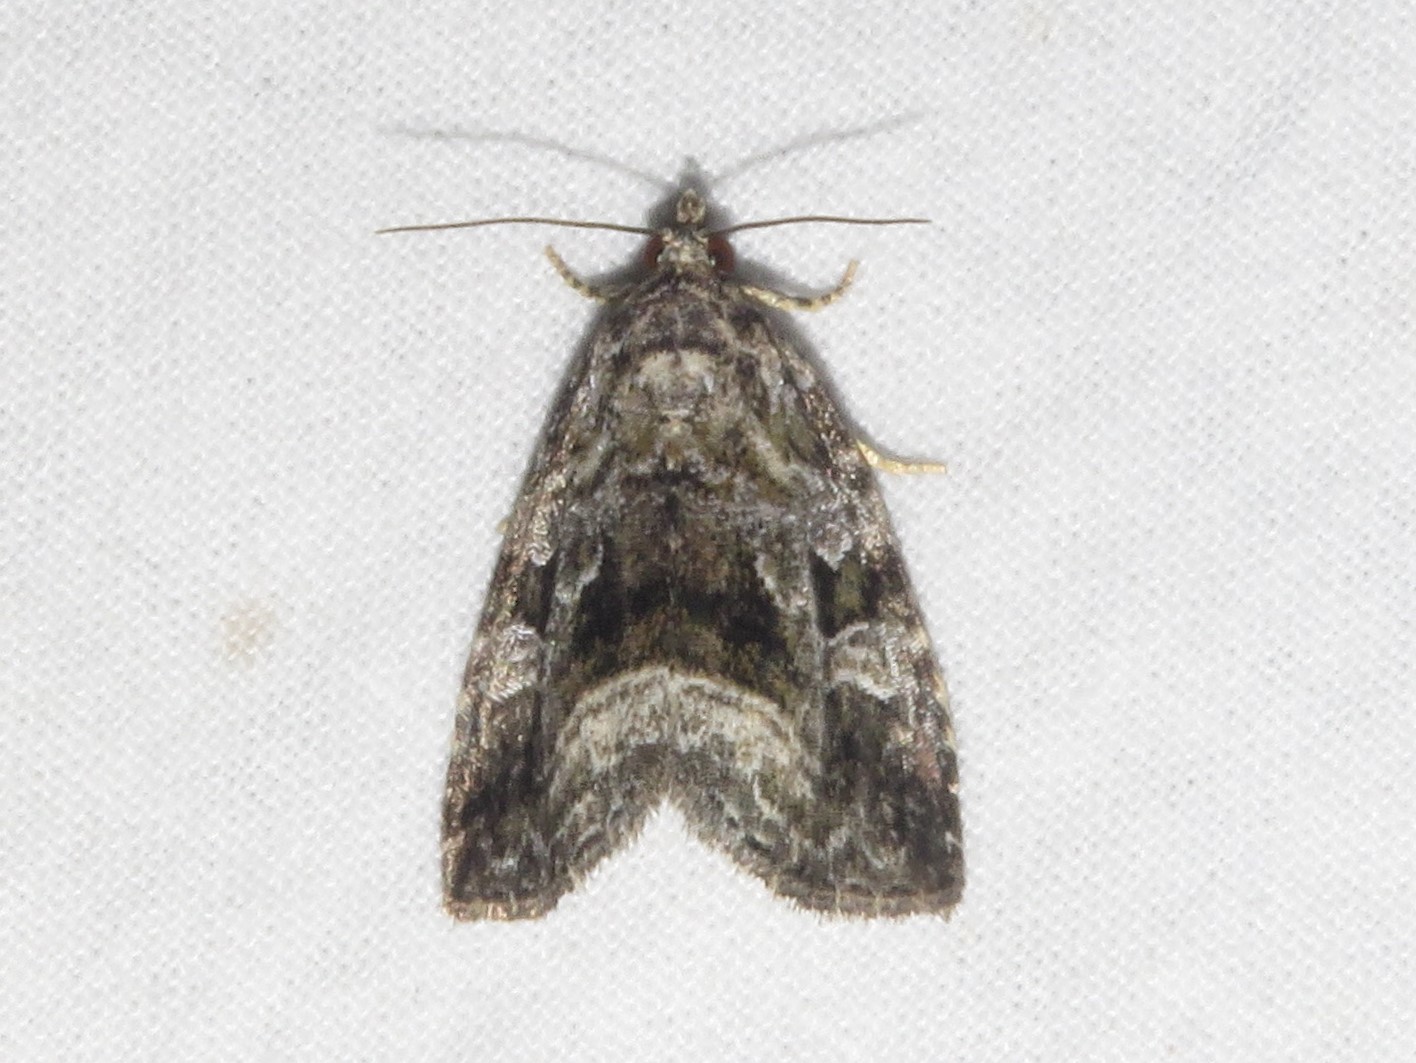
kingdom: Animalia
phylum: Arthropoda
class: Insecta
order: Lepidoptera
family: Noctuidae
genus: Protodeltote
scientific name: Protodeltote muscosula
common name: Large mossy glyph
